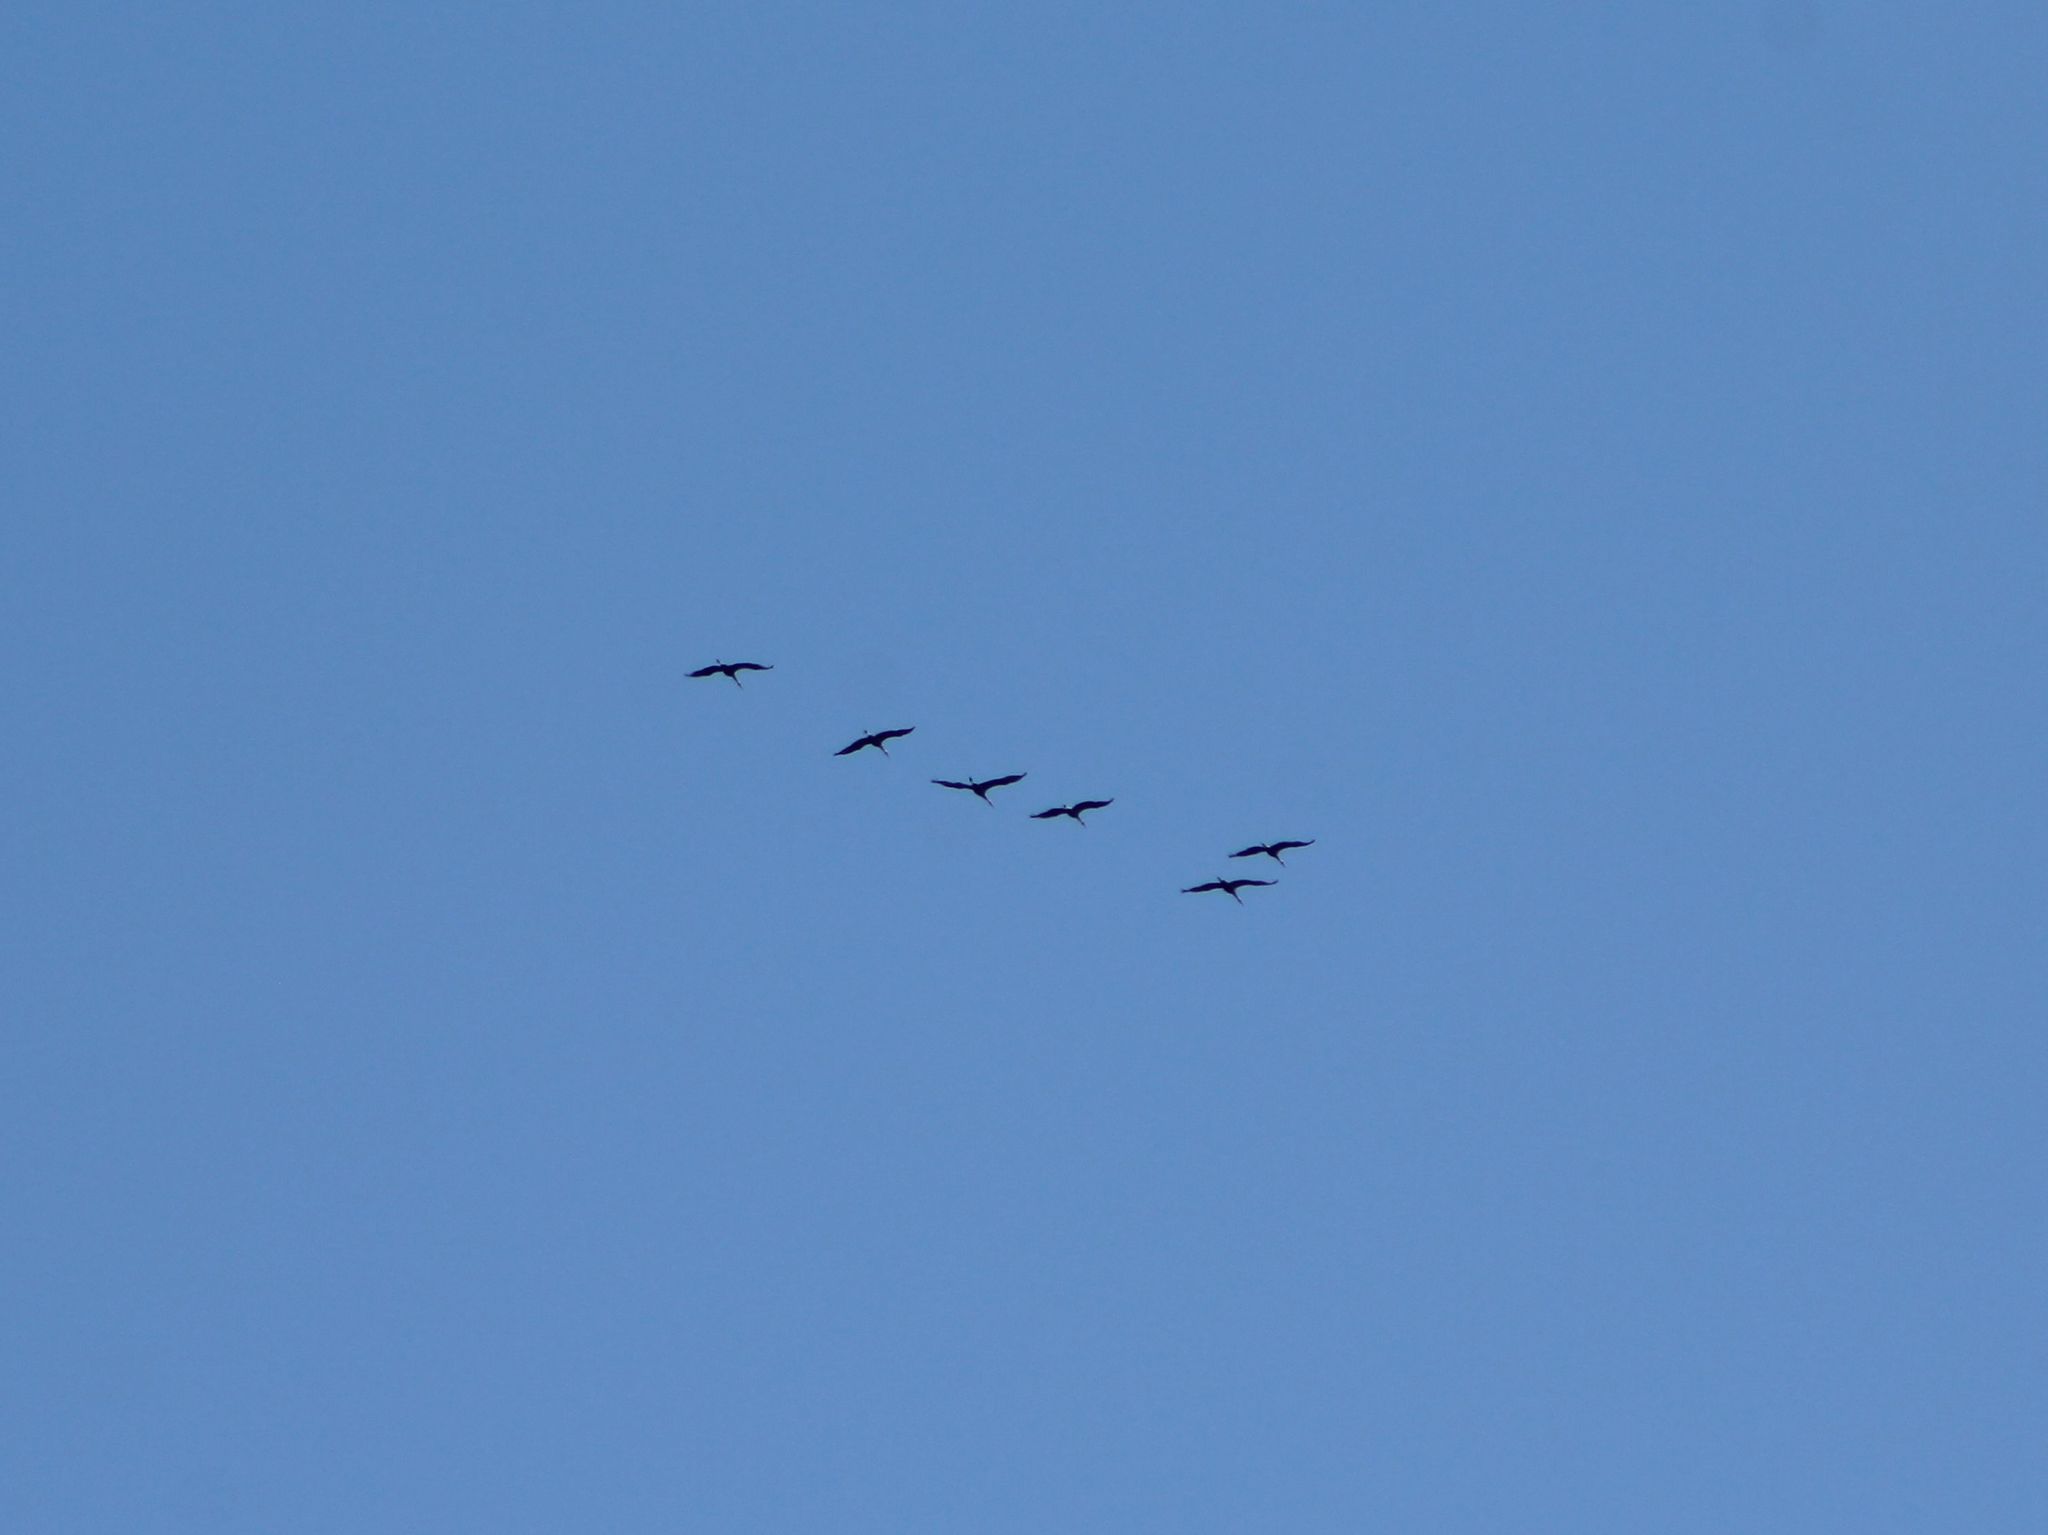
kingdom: Animalia
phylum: Chordata
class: Aves
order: Gruiformes
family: Gruidae
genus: Grus
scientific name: Grus canadensis
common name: Sandhill crane
